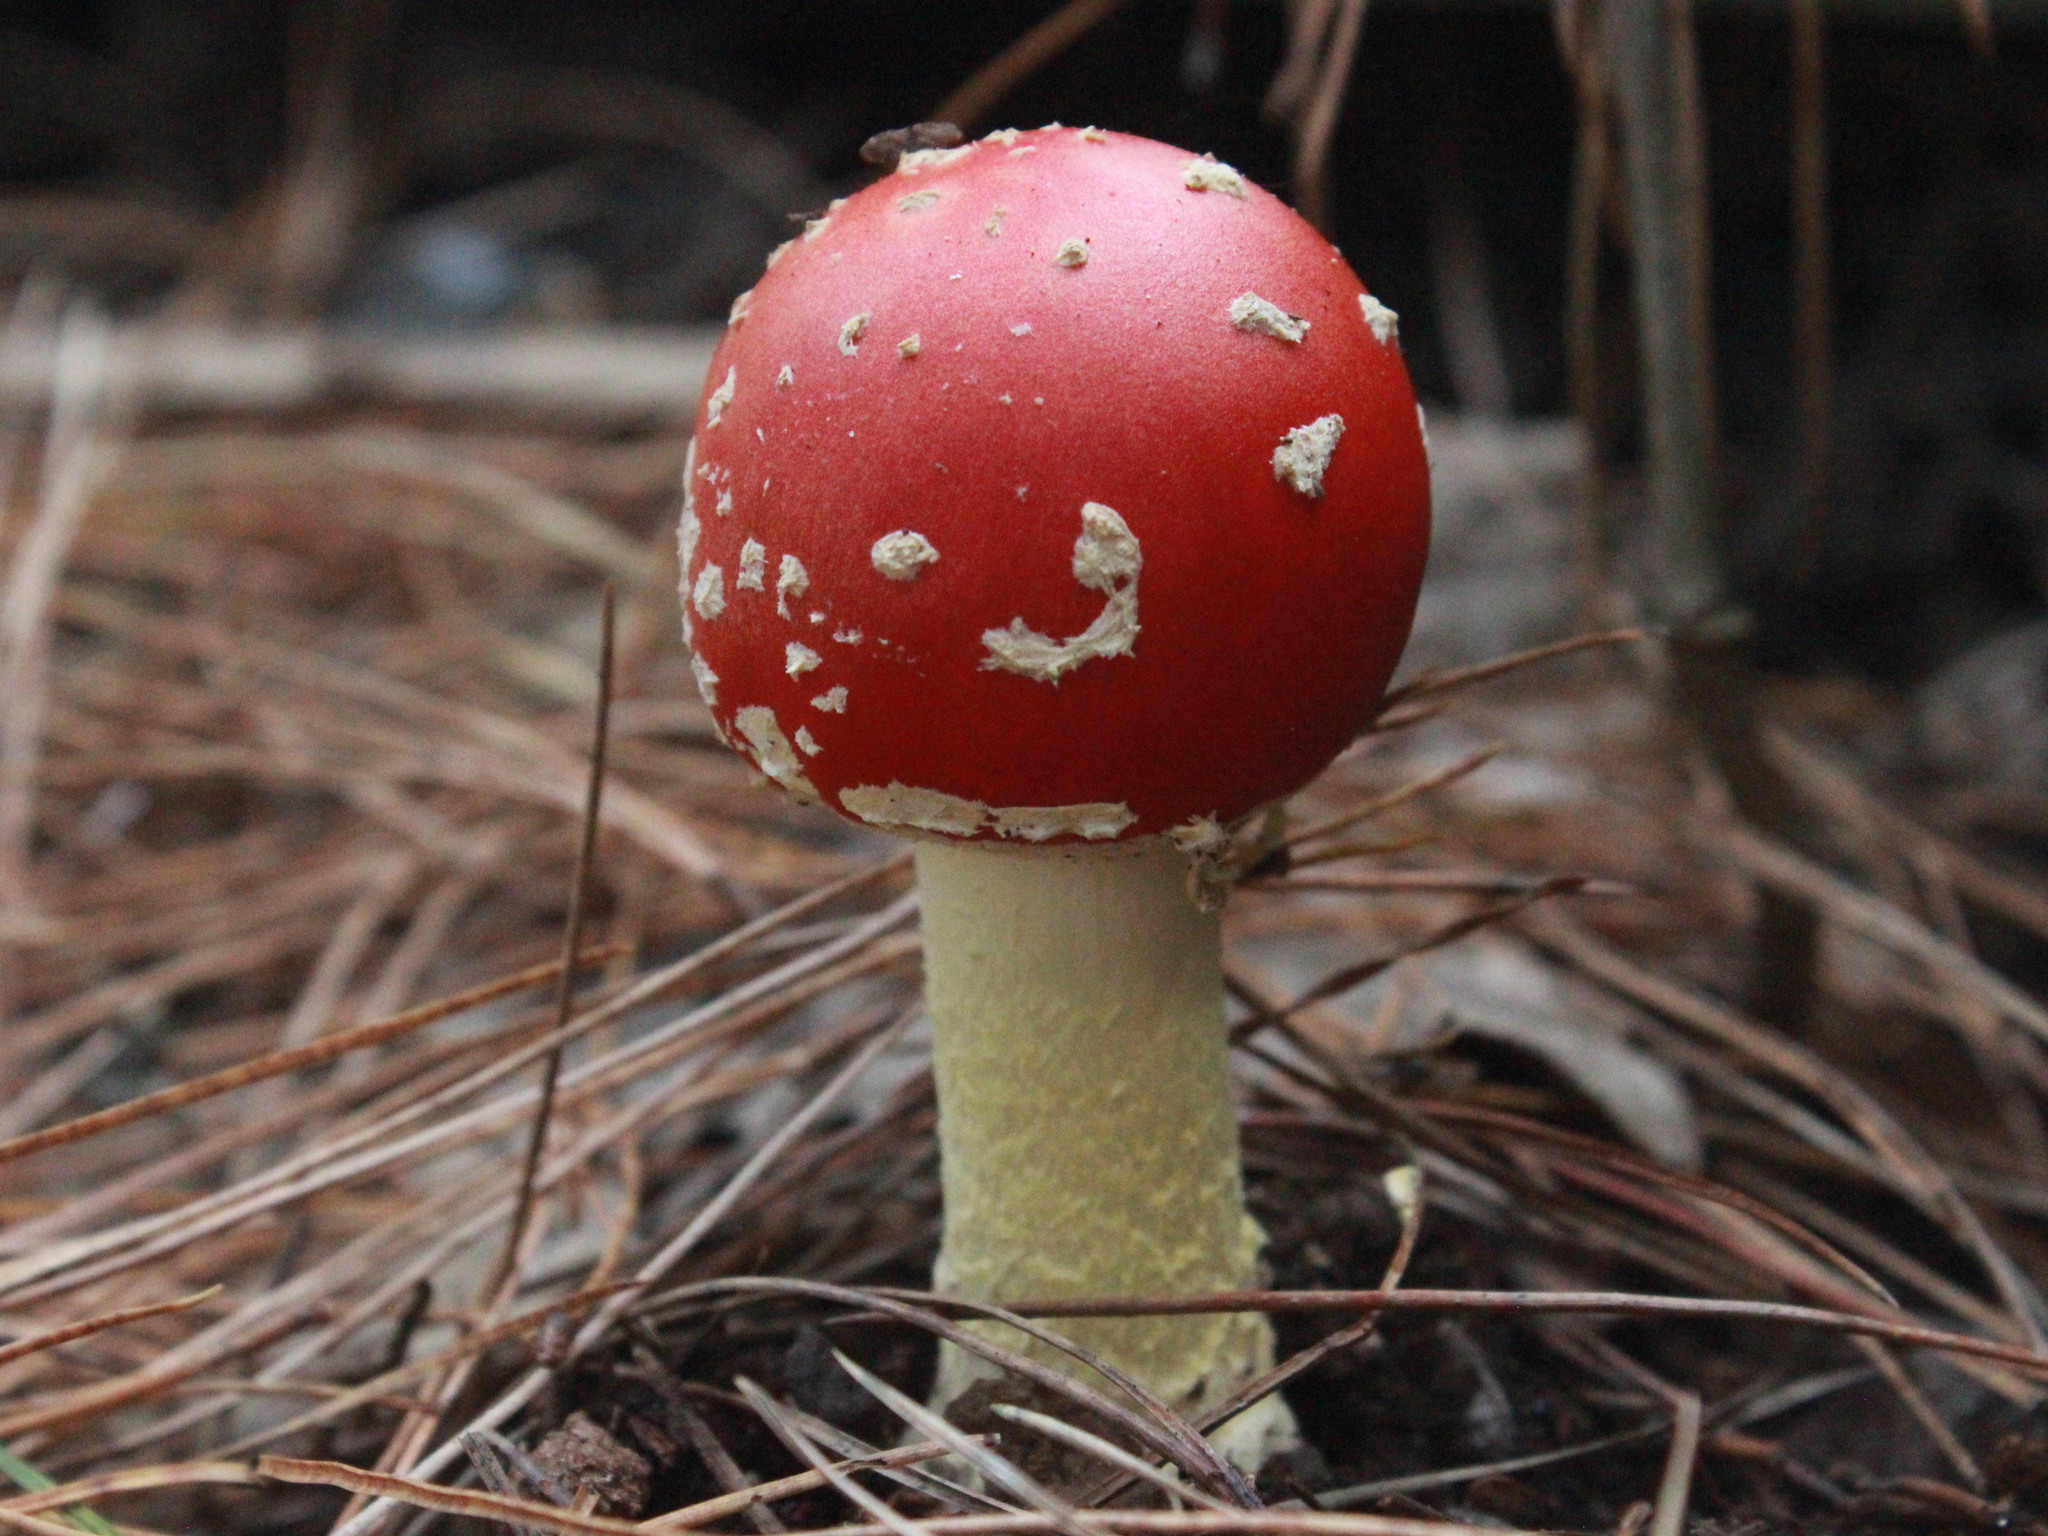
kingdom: Fungi
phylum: Basidiomycota
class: Agaricomycetes
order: Agaricales
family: Amanitaceae
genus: Amanita
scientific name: Amanita muscaria
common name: Fly agaric
